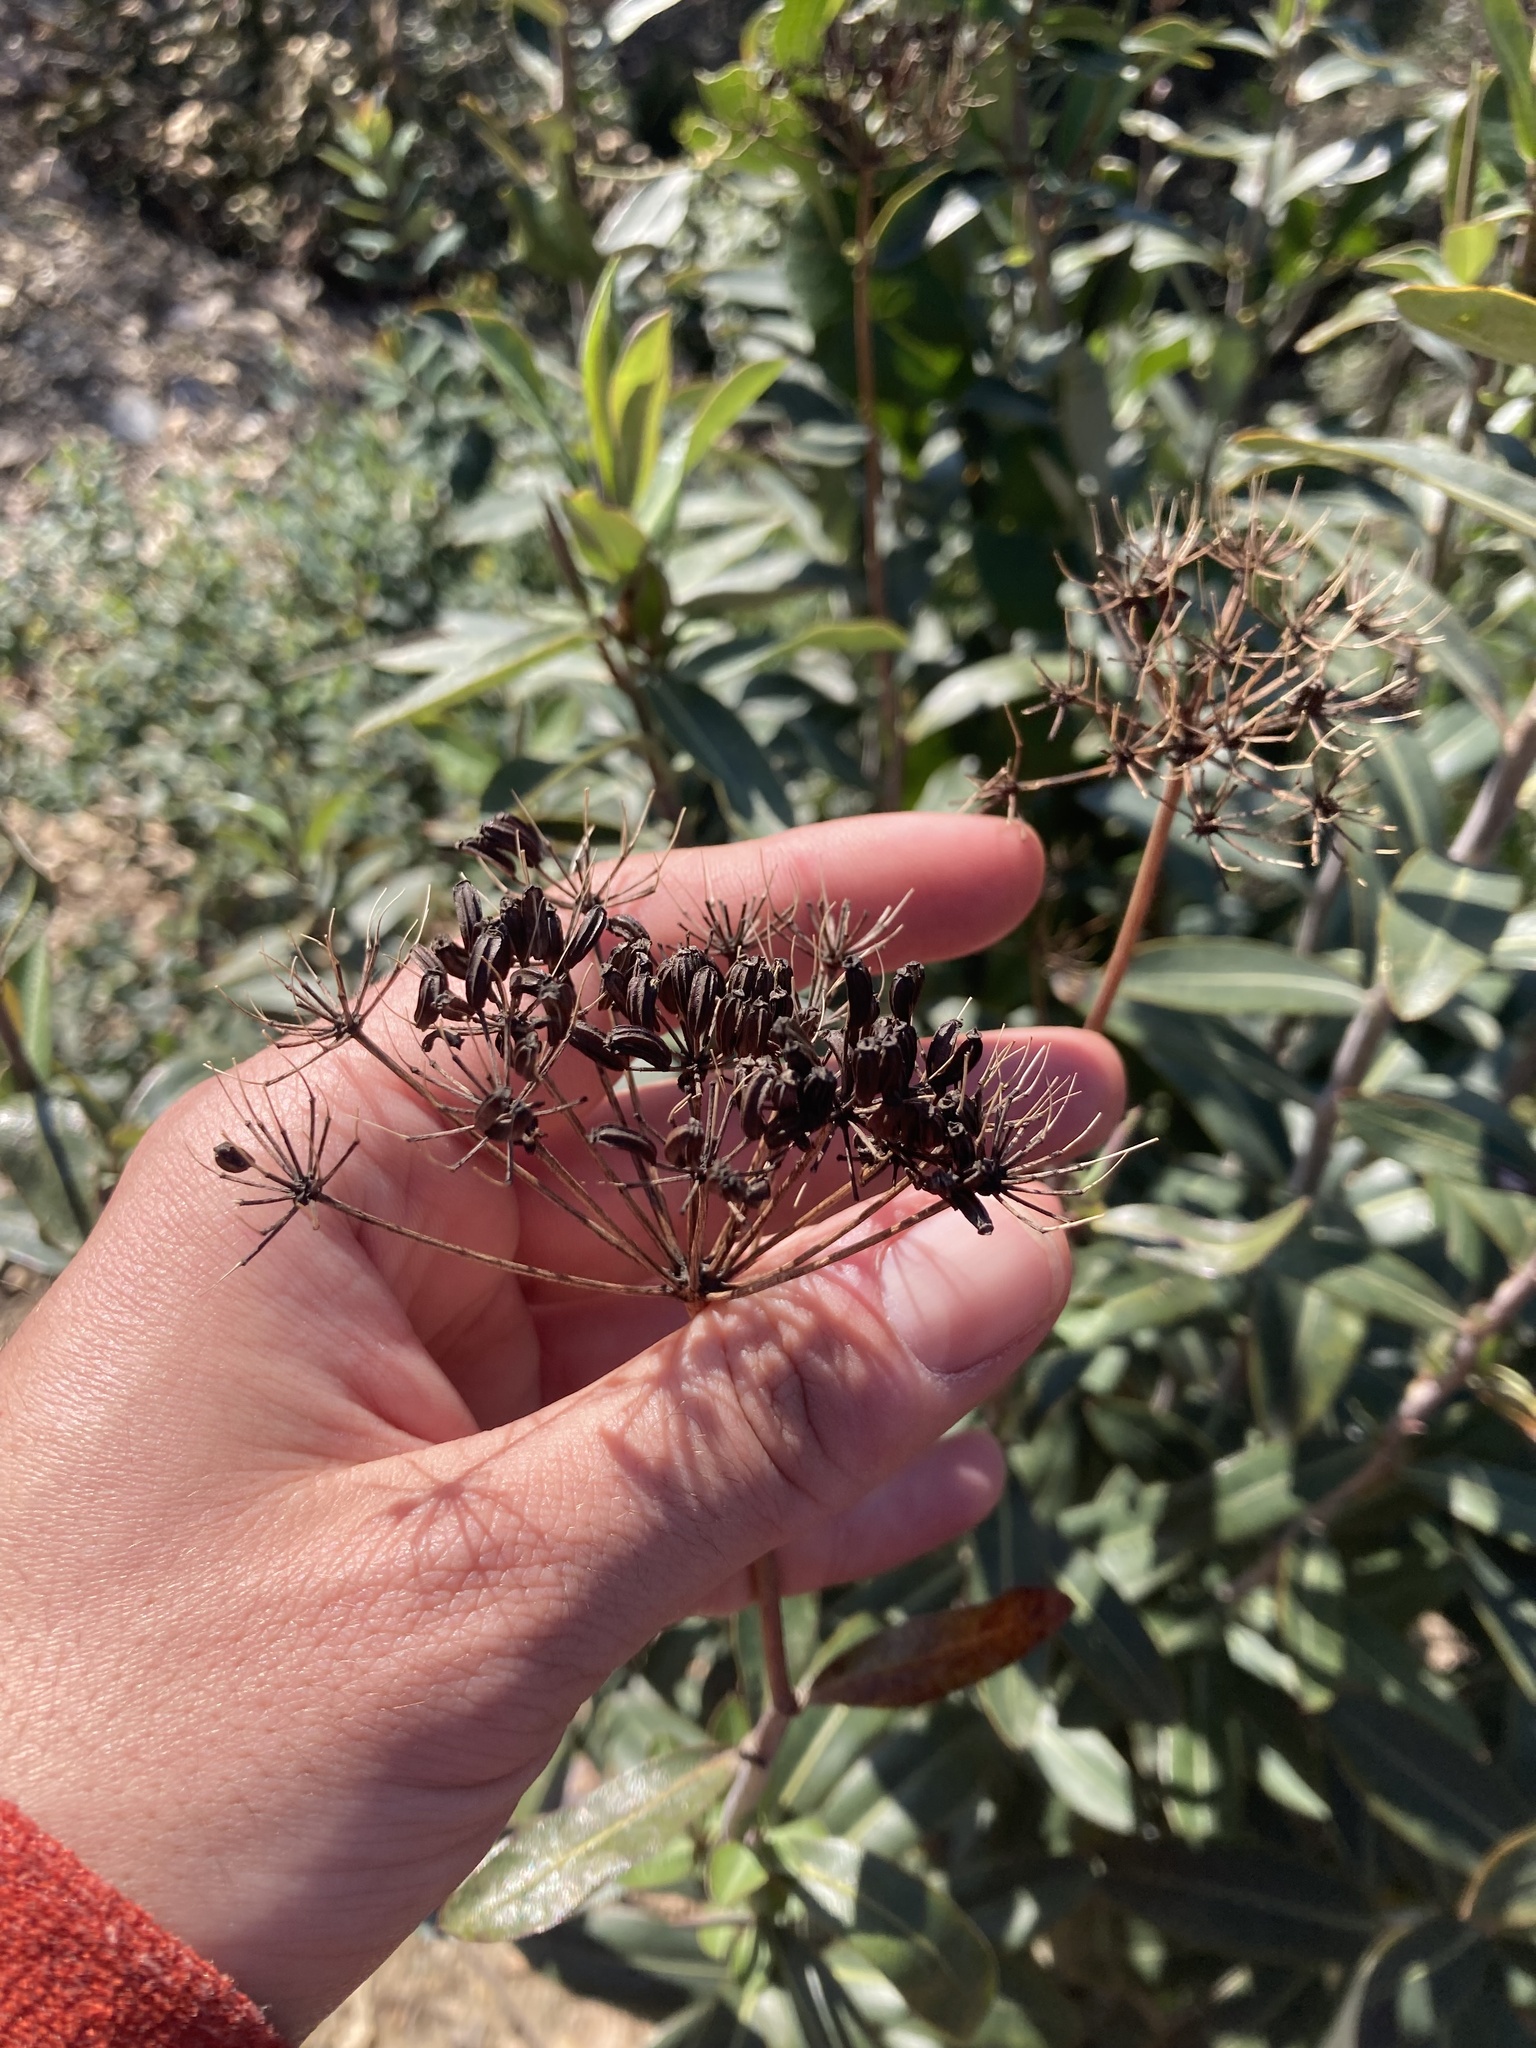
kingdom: Plantae
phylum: Tracheophyta
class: Magnoliopsida
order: Apiales
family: Apiaceae
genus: Bupleurum
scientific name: Bupleurum fruticosum
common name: Shrubby hare's-ear
